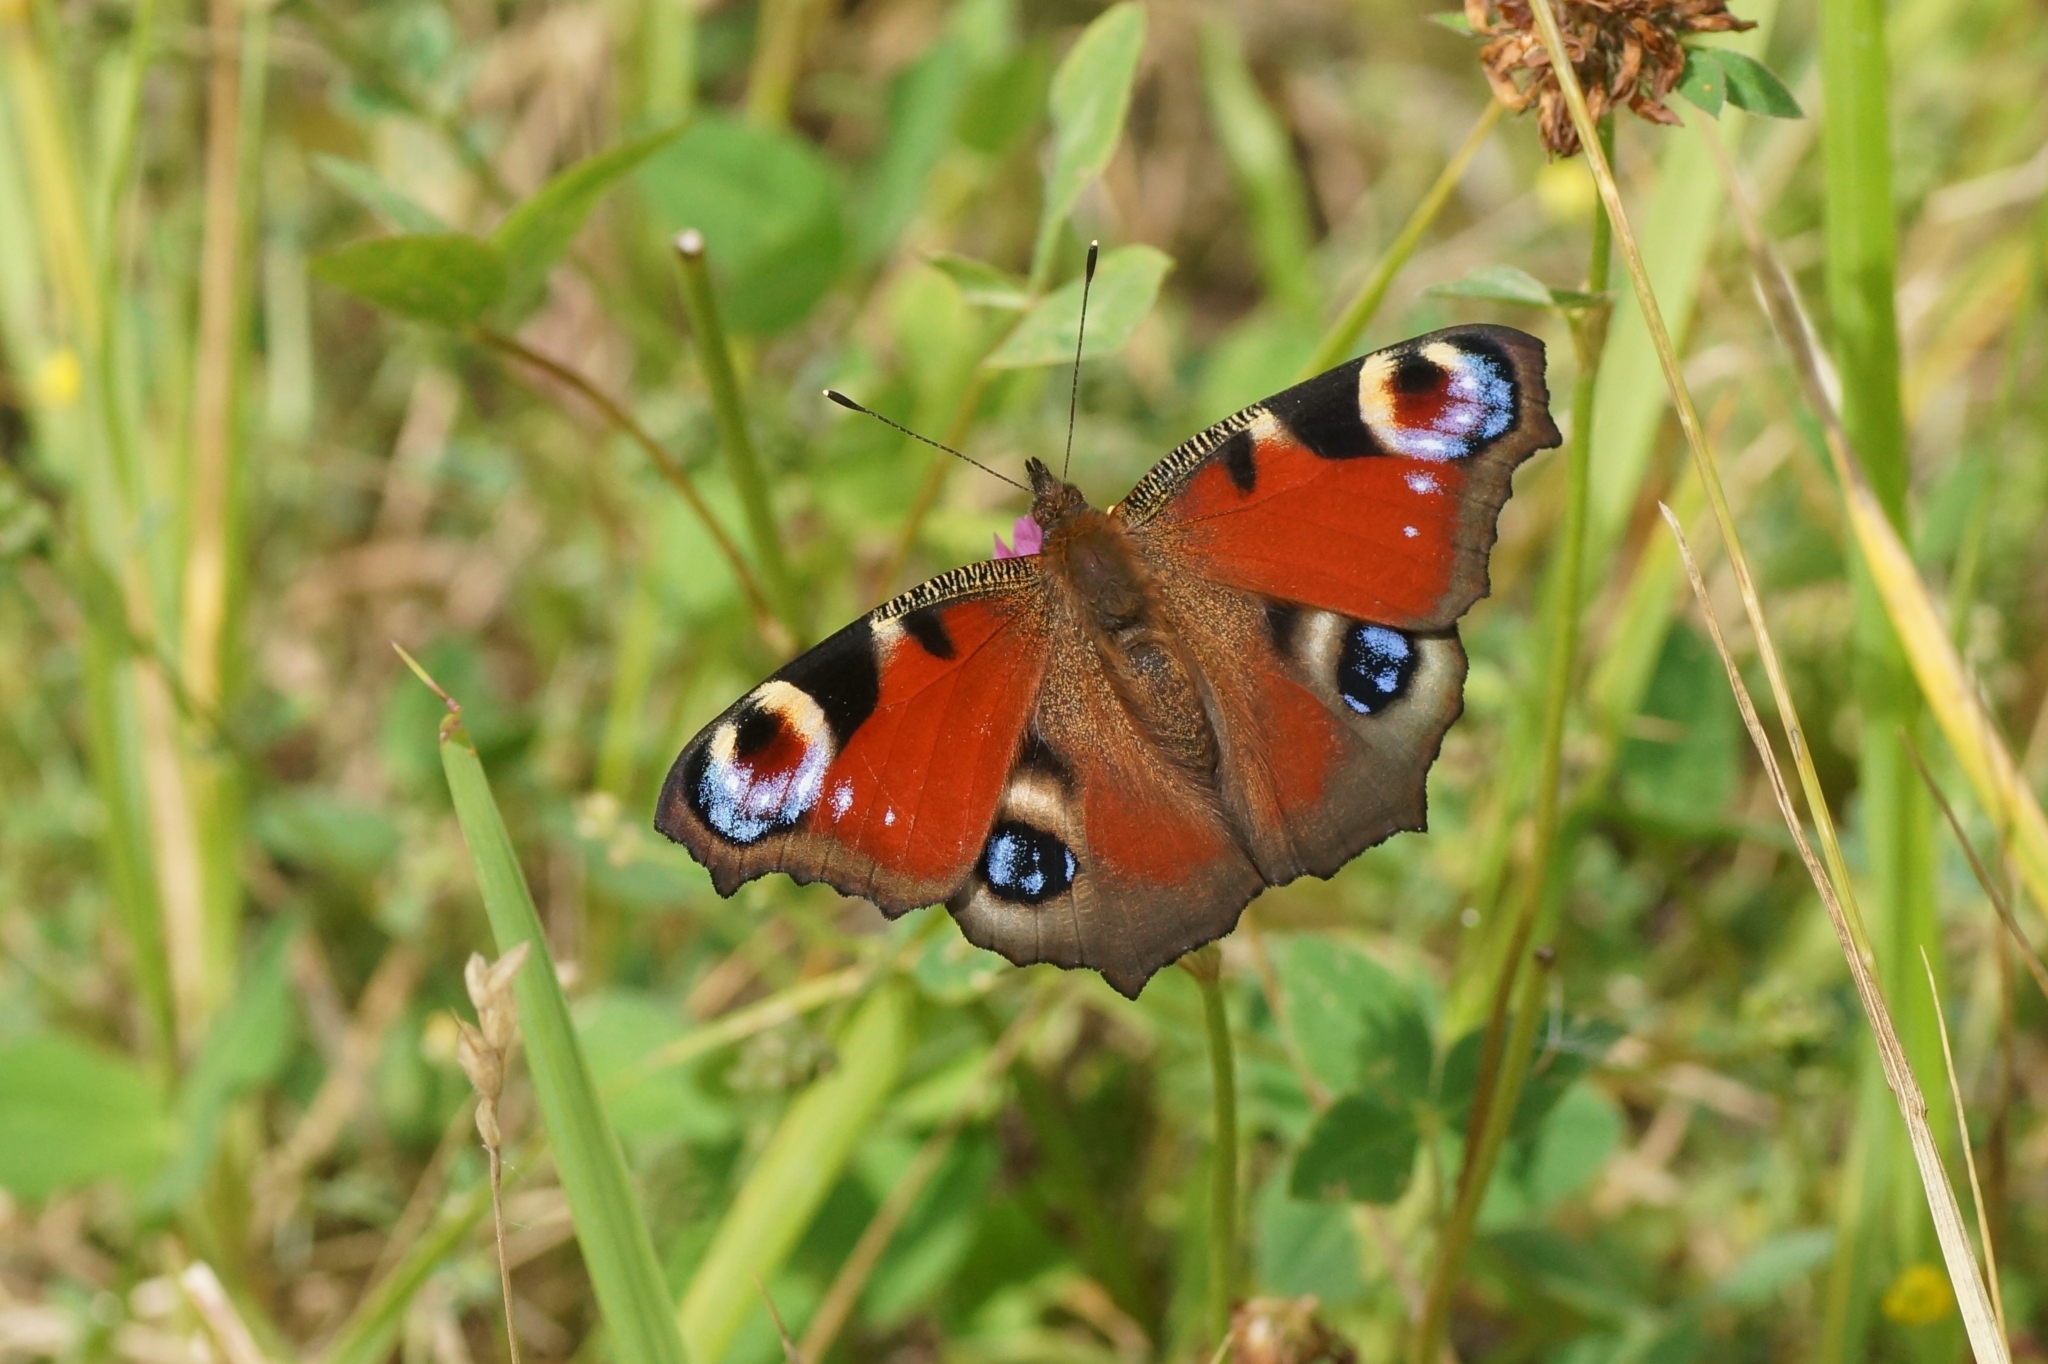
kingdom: Animalia
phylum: Arthropoda
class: Insecta
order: Lepidoptera
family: Nymphalidae
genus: Aglais
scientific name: Aglais io
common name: Peacock
